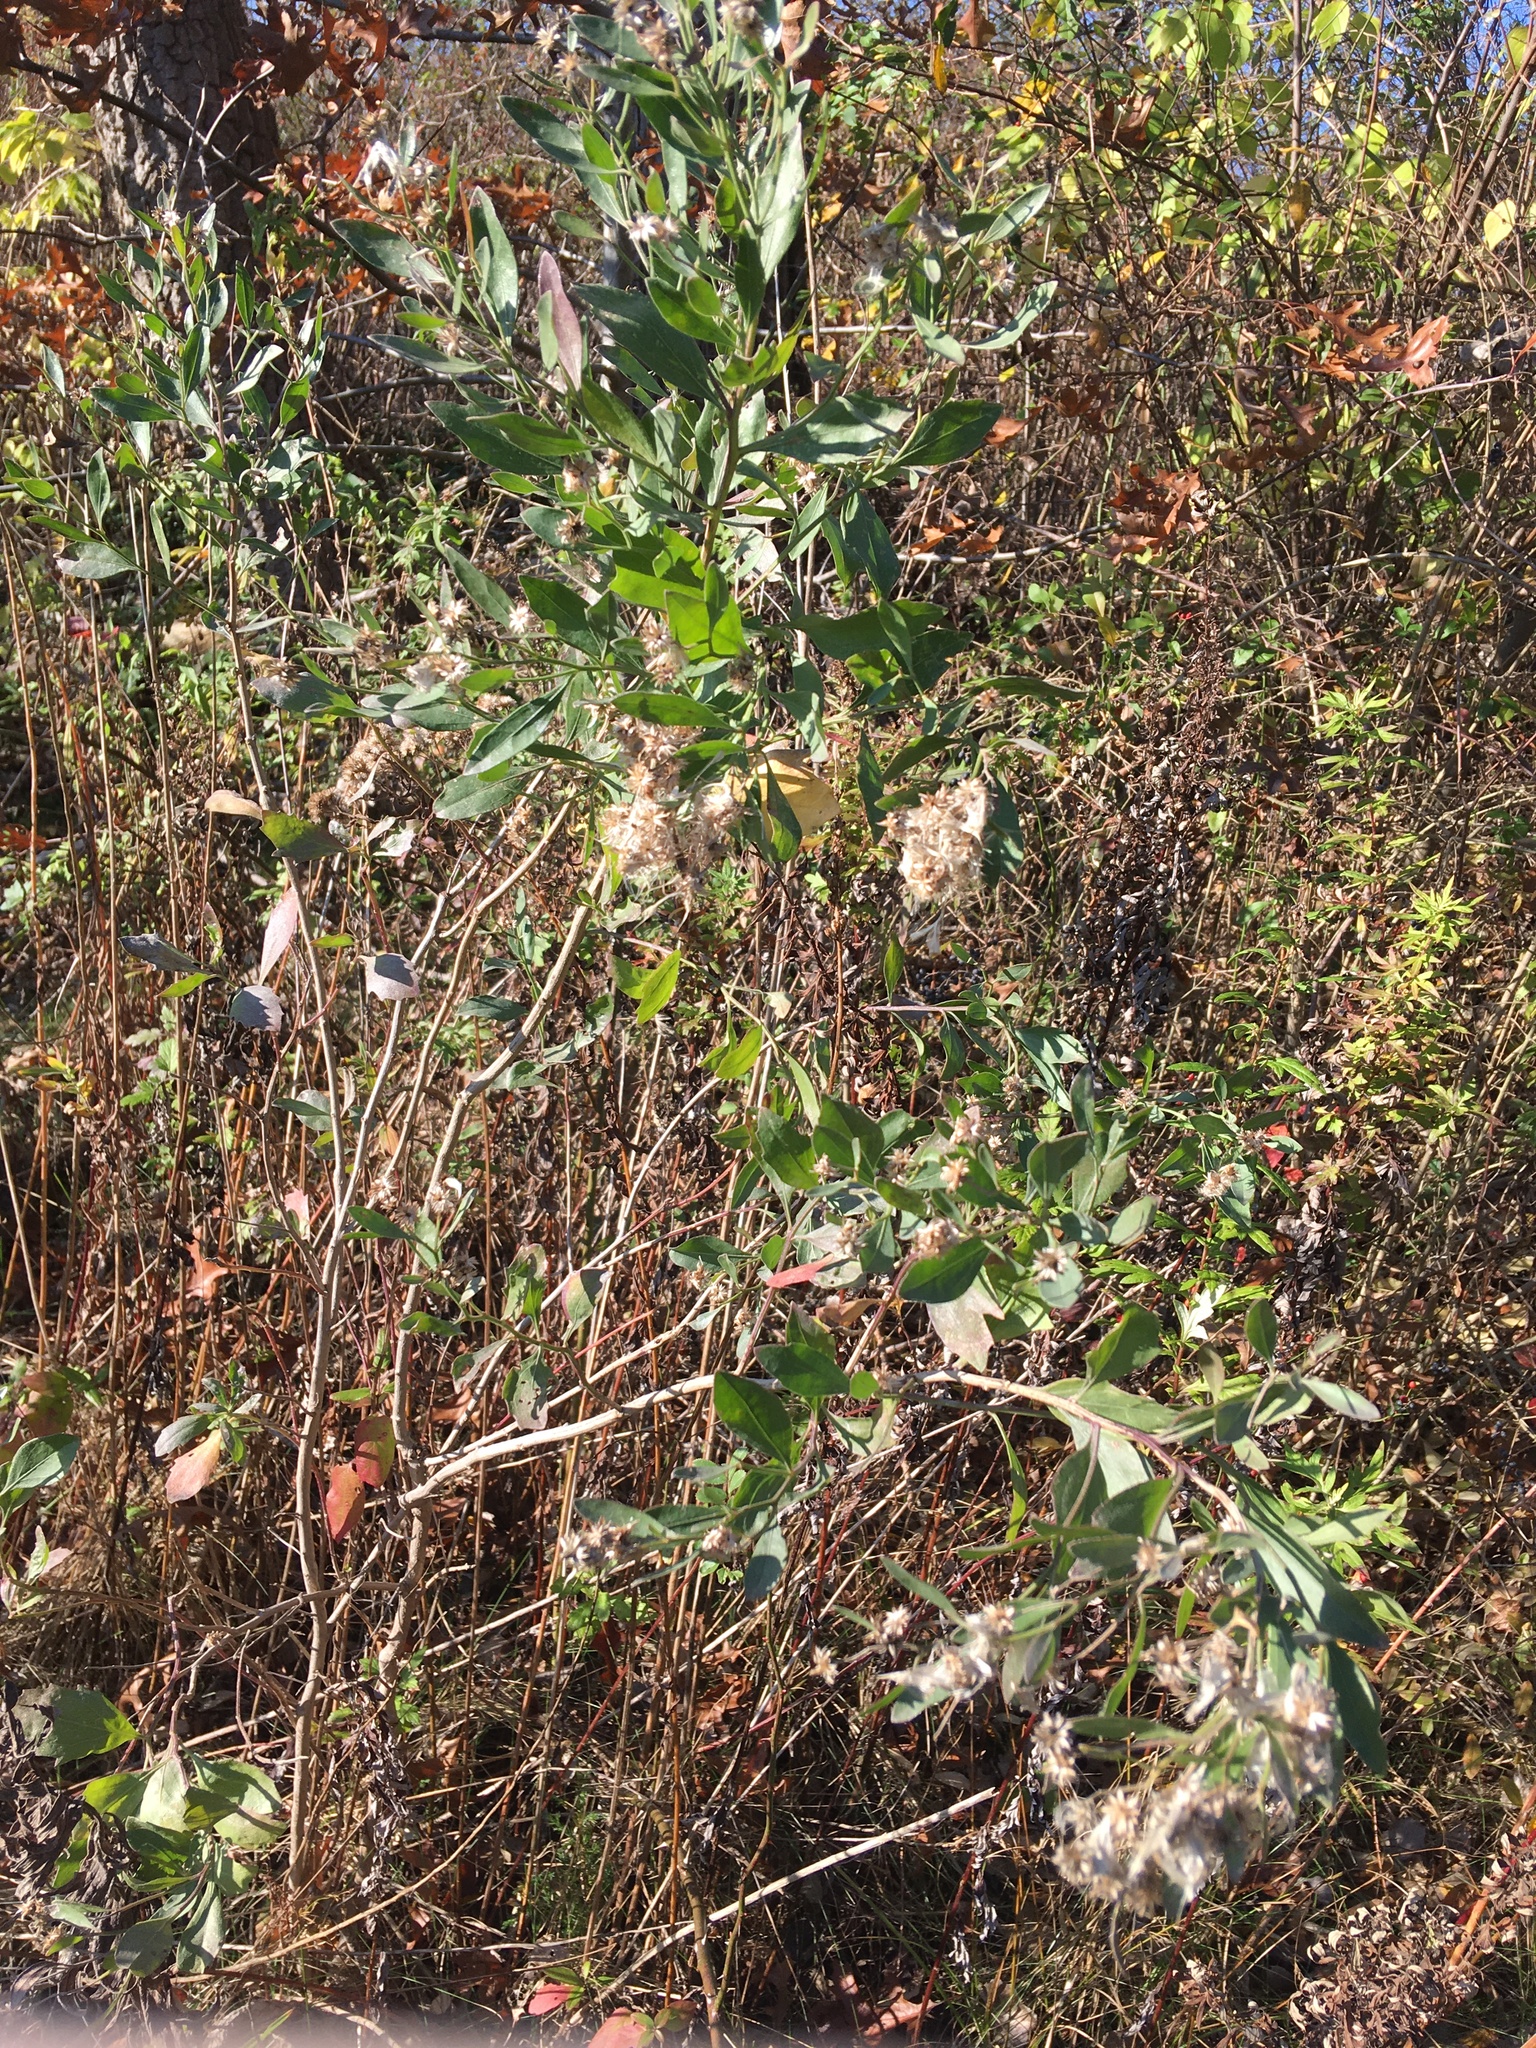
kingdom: Plantae
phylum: Tracheophyta
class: Magnoliopsida
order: Asterales
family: Asteraceae
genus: Baccharis
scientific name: Baccharis halimifolia
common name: Eastern baccharis
